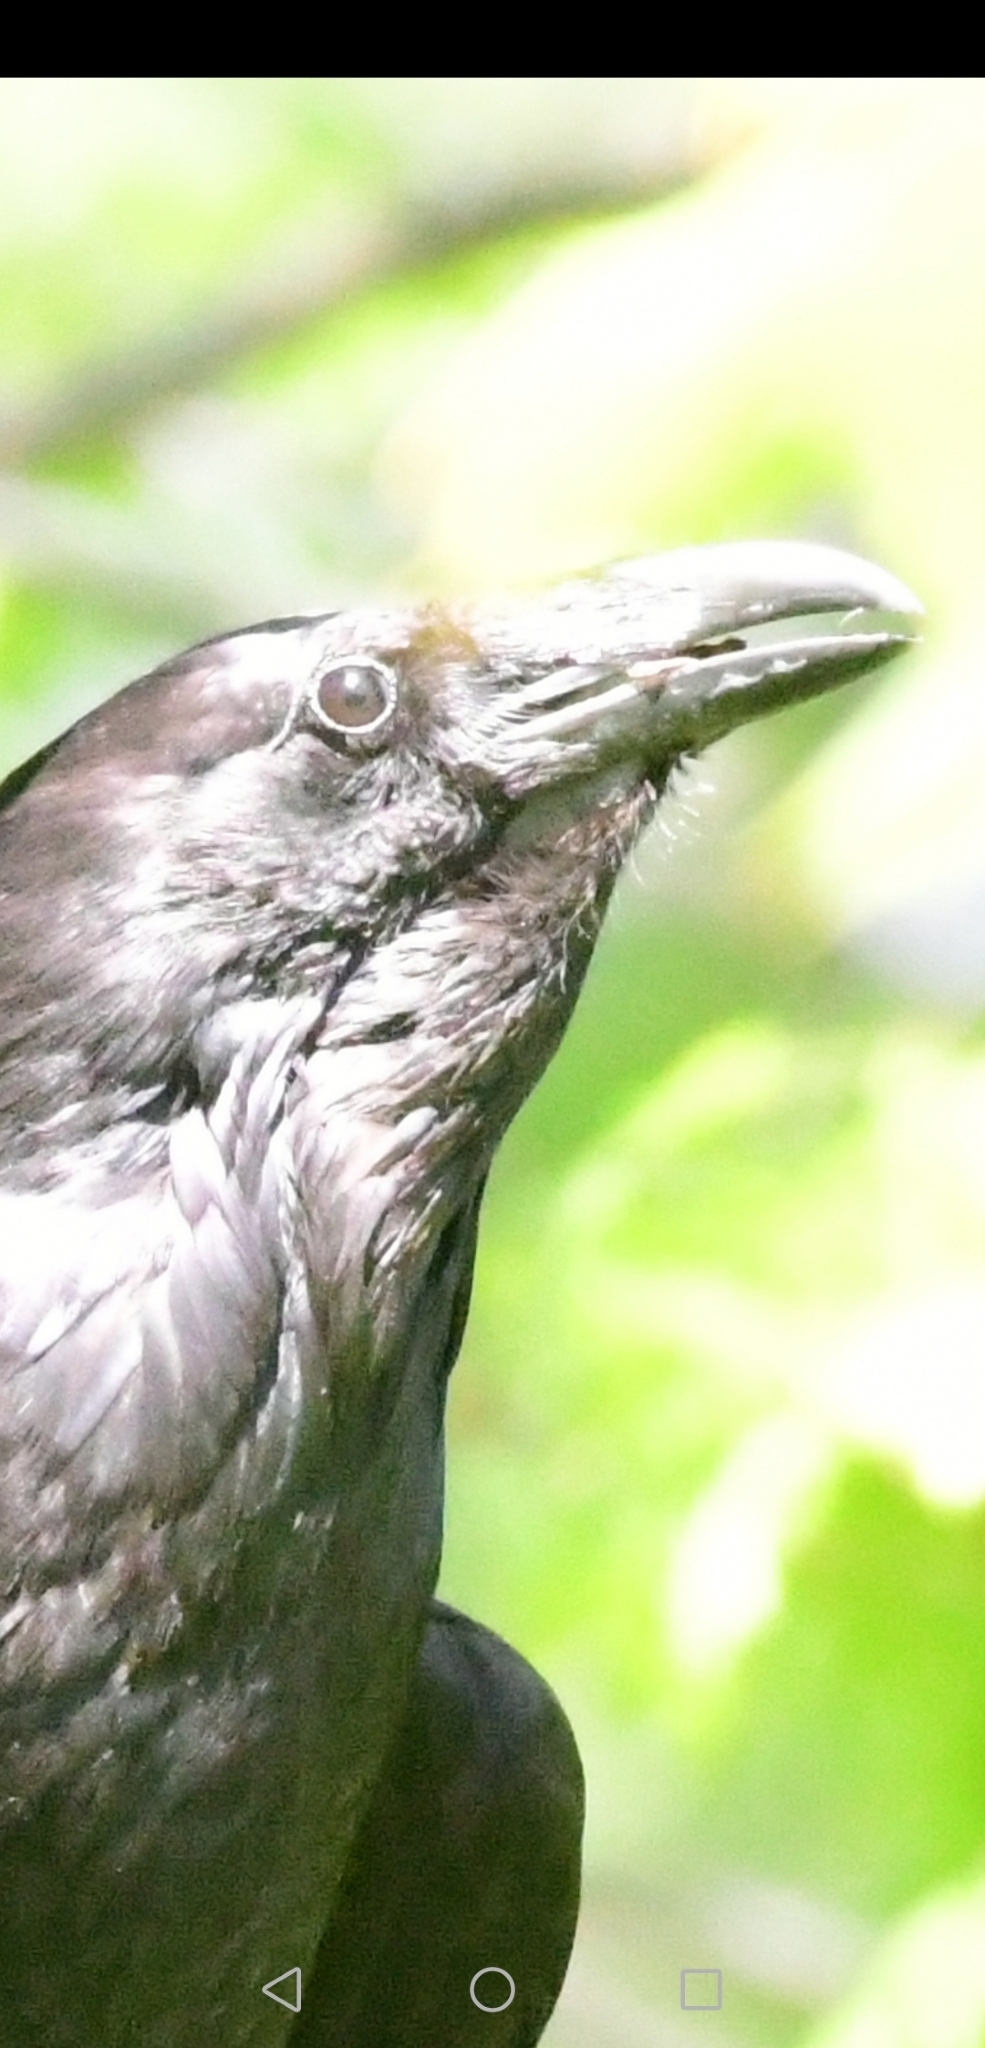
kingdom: Animalia
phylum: Chordata
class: Aves
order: Passeriformes
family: Corvidae
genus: Corvus
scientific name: Corvus corax
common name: Common raven
